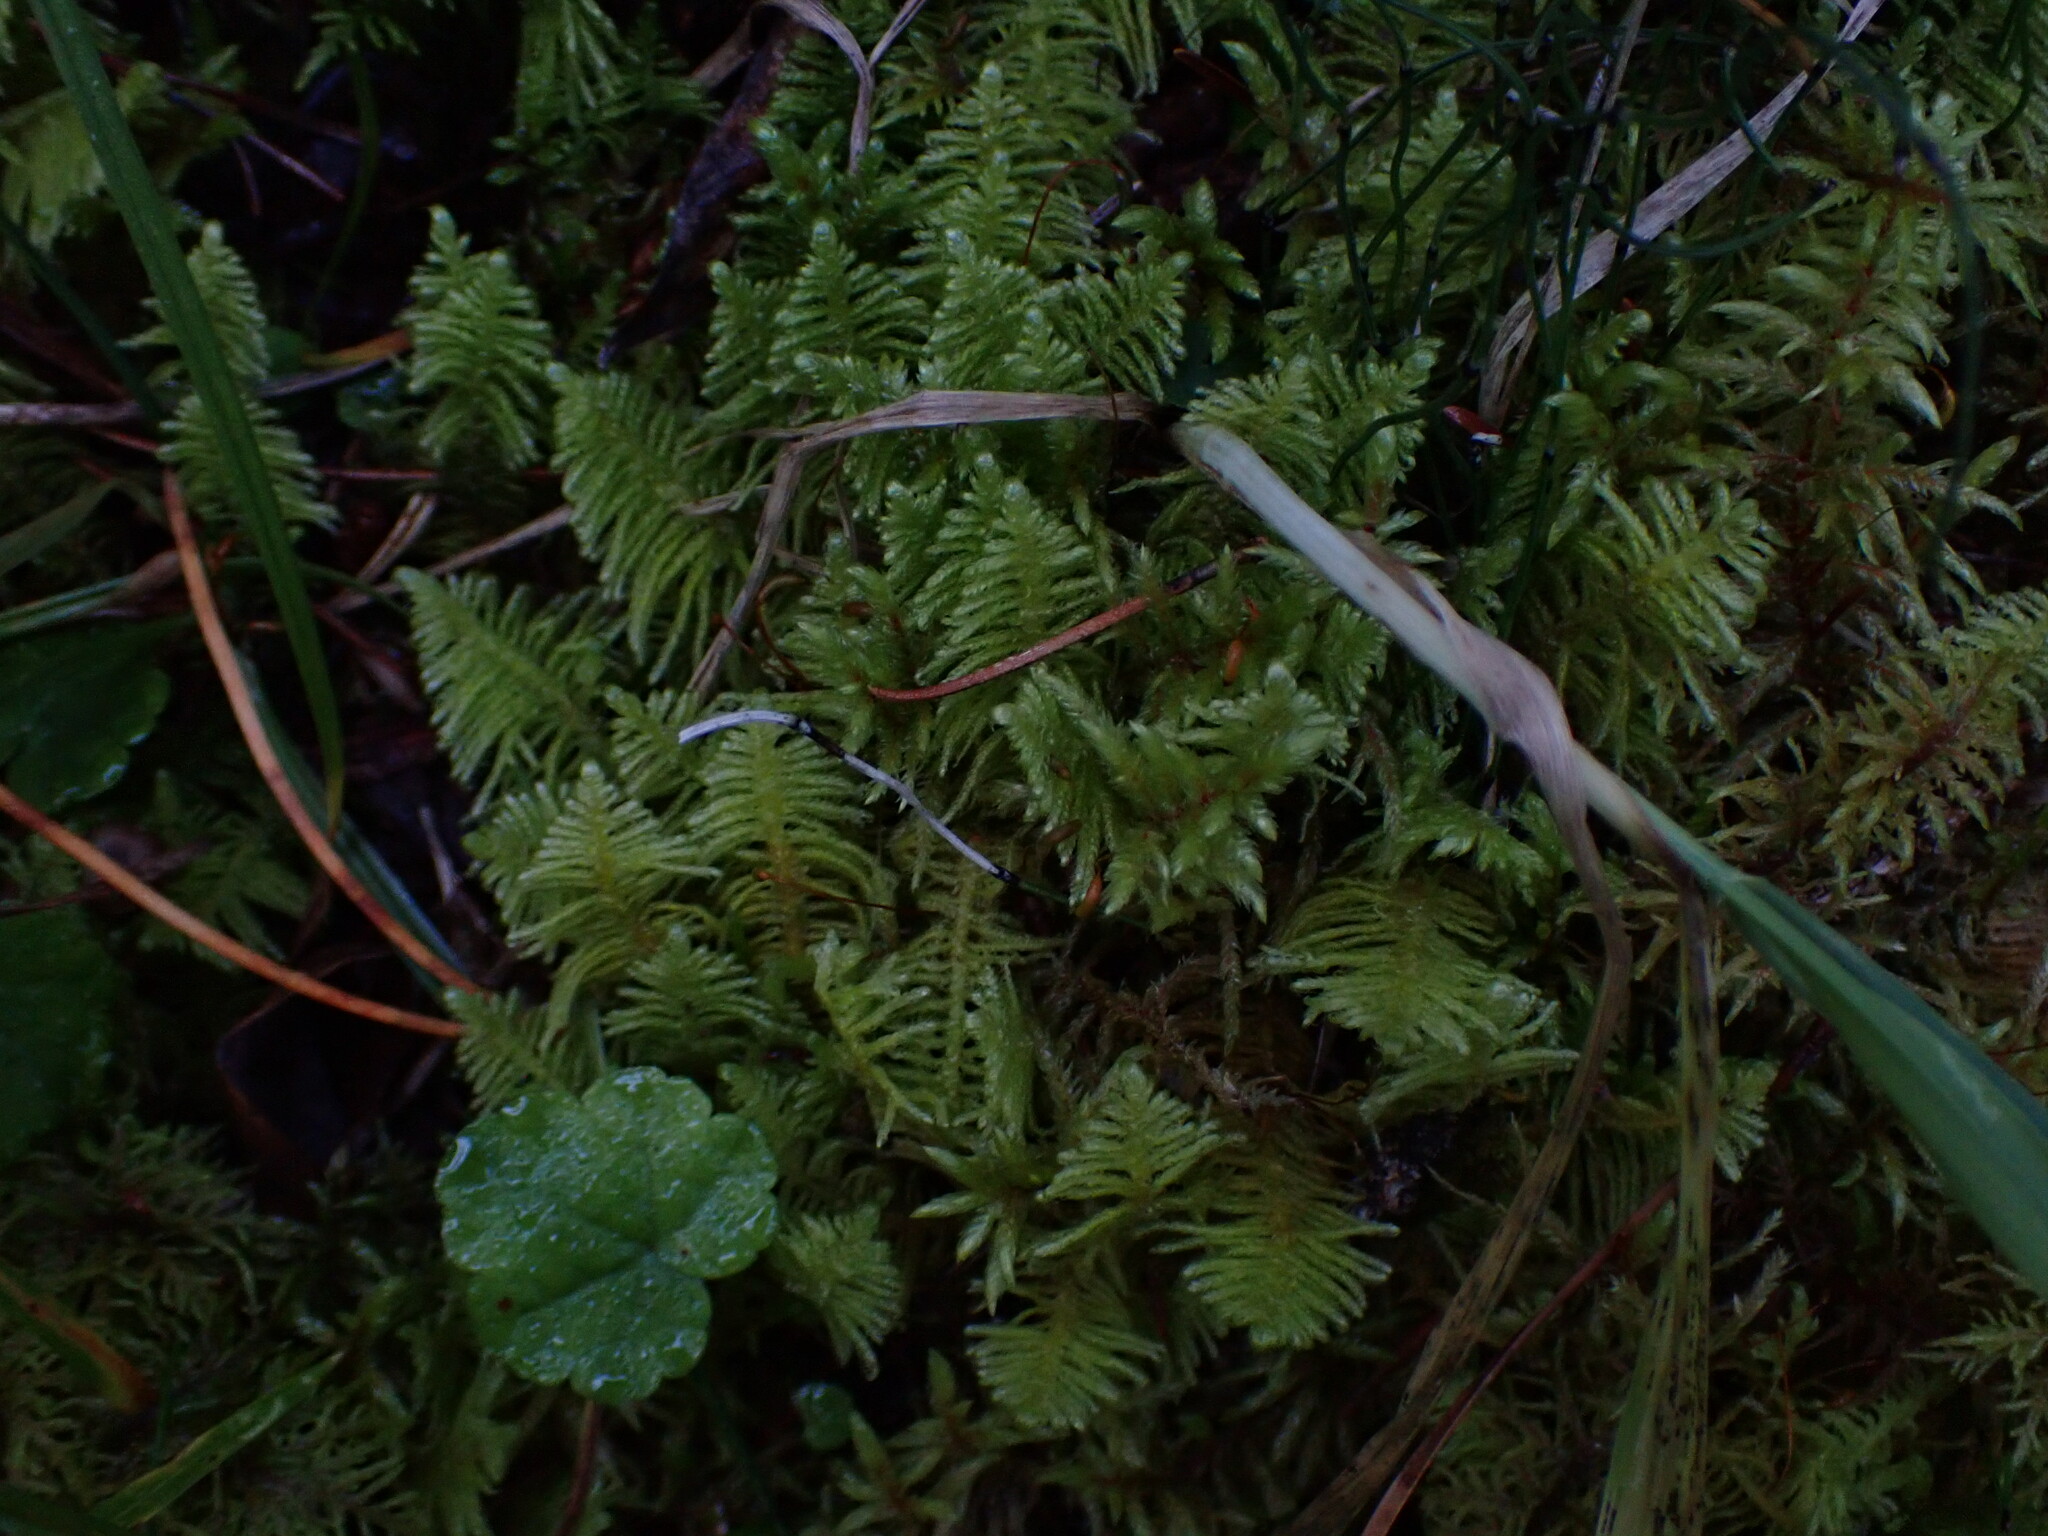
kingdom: Plantae
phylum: Bryophyta
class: Bryopsida
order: Hypnales
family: Pylaisiaceae
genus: Ptilium
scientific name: Ptilium crista-castrensis
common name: Knight's plume moss
